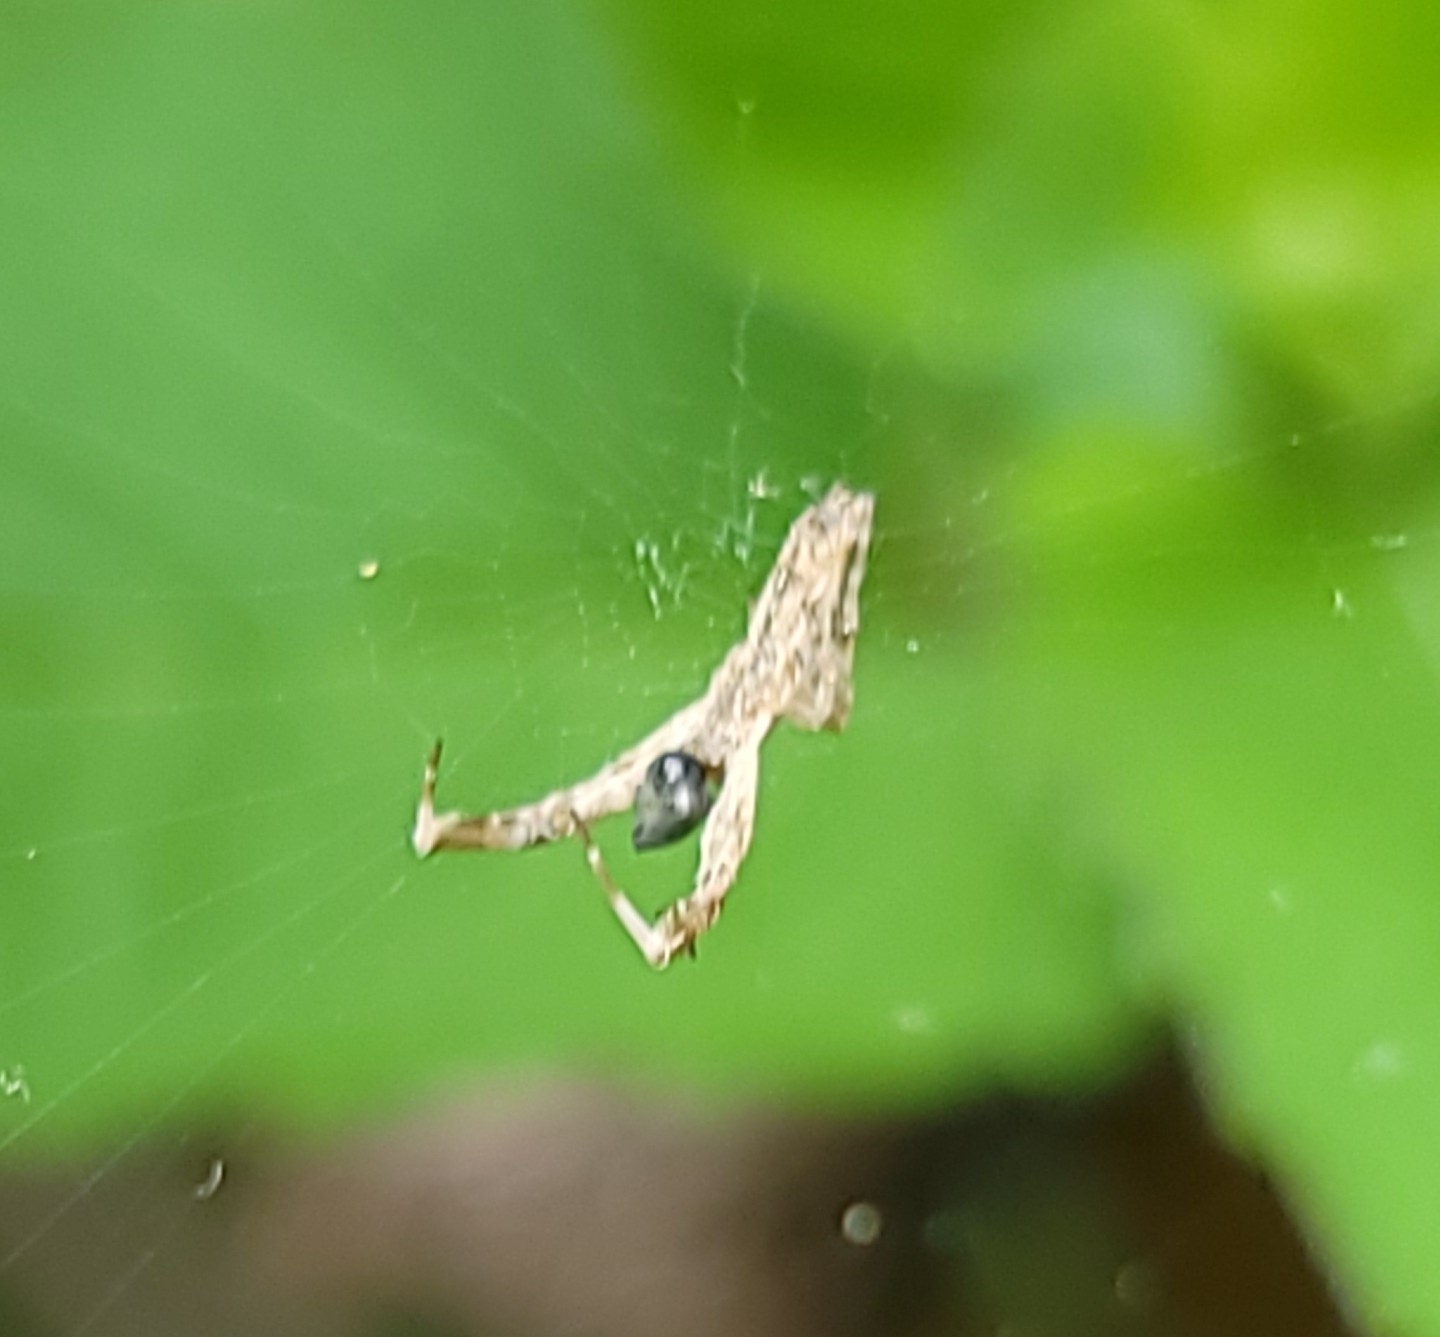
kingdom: Animalia
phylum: Arthropoda
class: Arachnida
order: Araneae
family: Uloboridae
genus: Uloborus
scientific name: Uloborus glomosus
